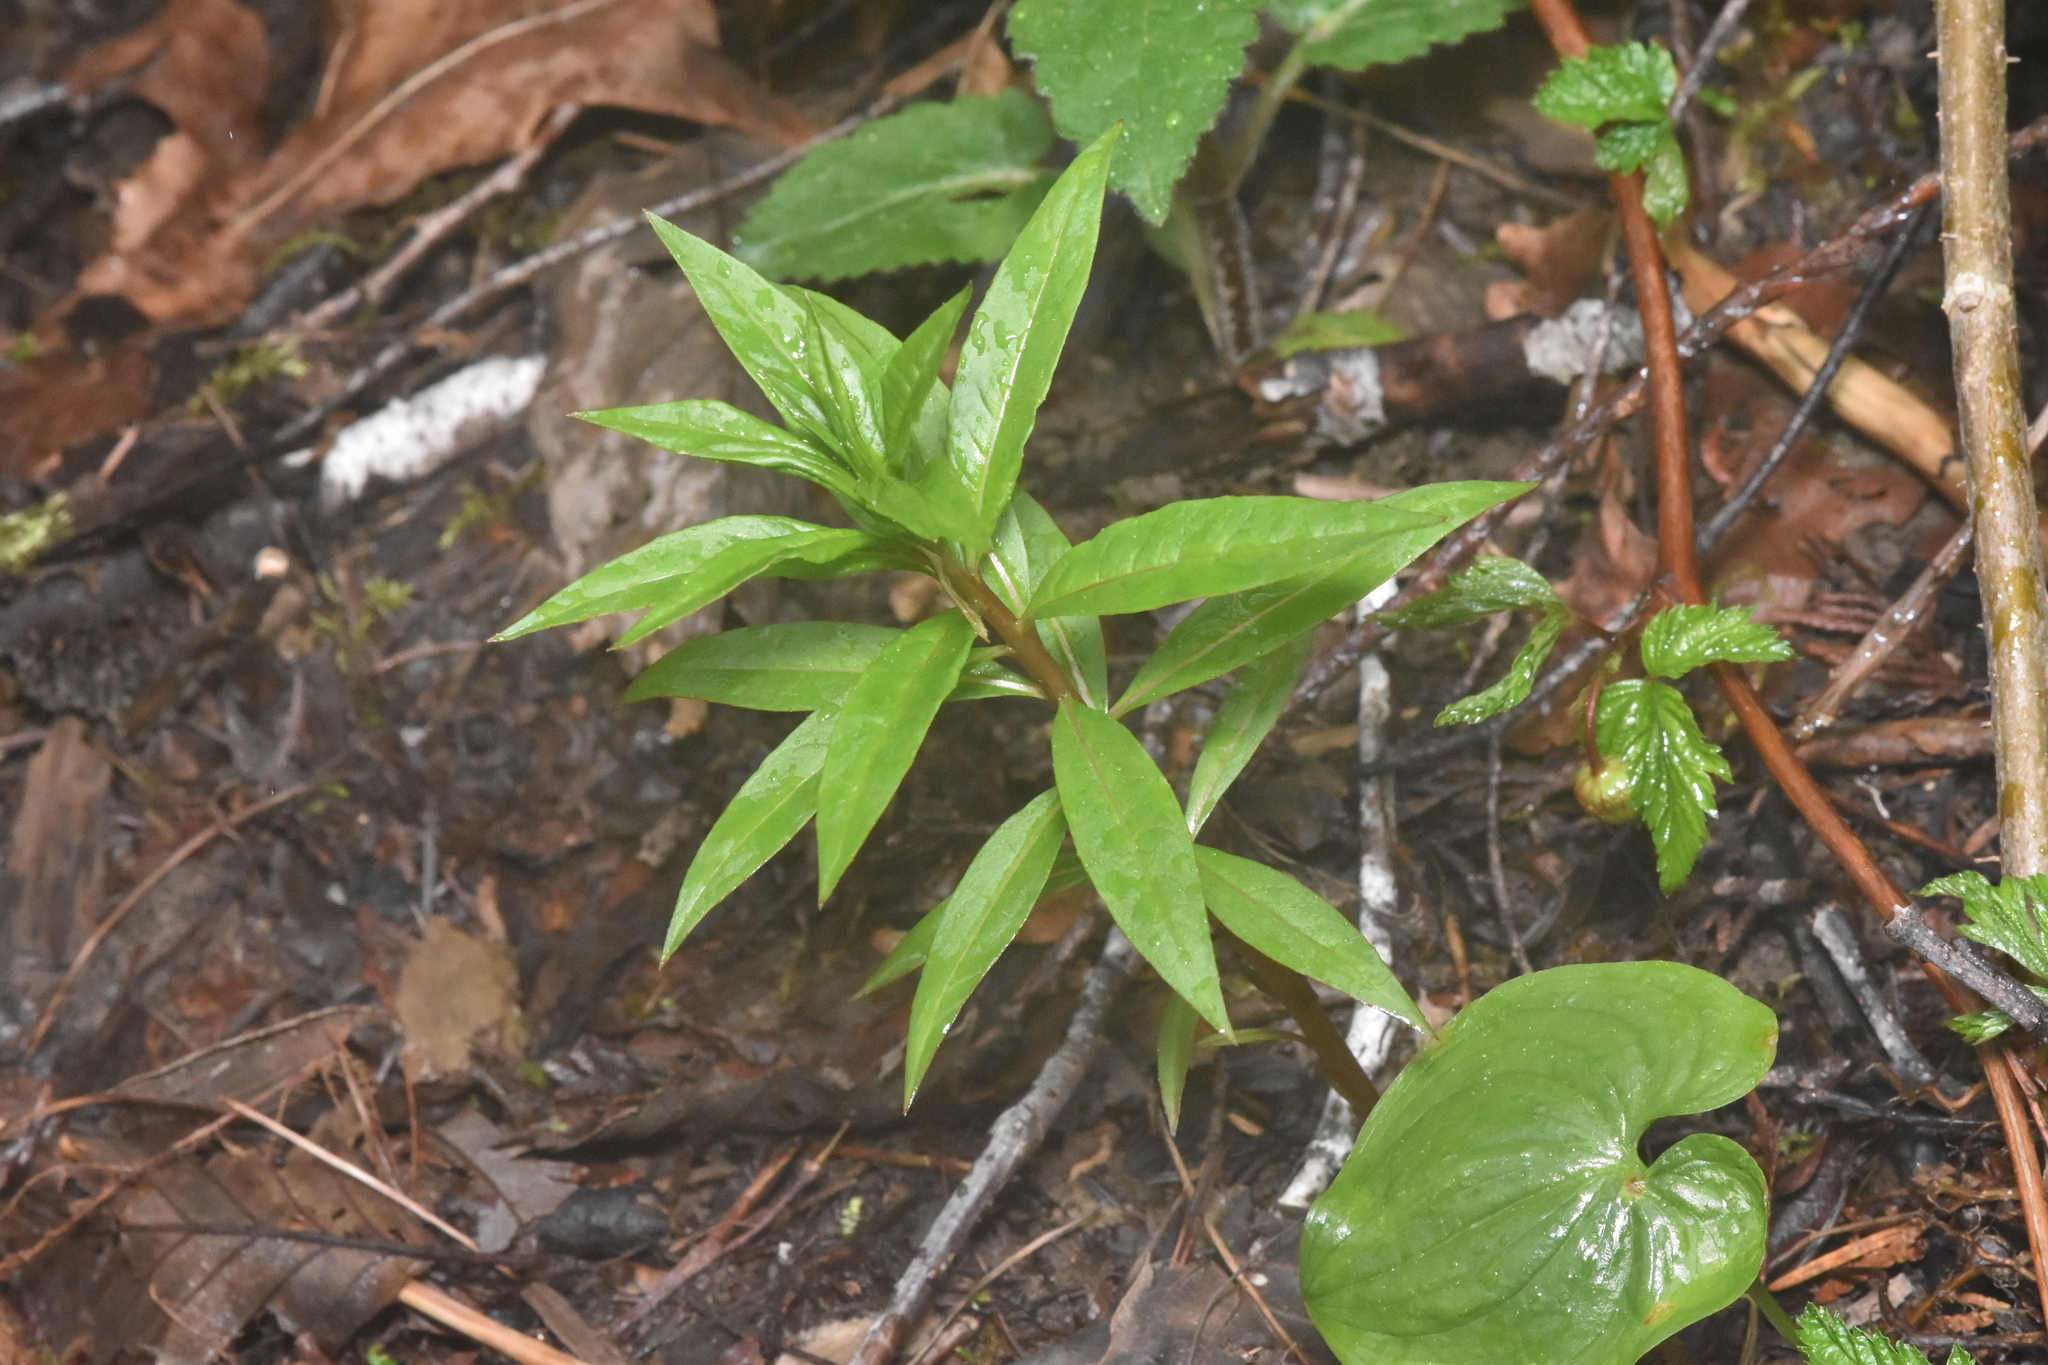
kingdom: Plantae
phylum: Tracheophyta
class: Magnoliopsida
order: Myrtales
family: Onagraceae
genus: Chamaenerion
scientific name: Chamaenerion angustifolium
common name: Fireweed
